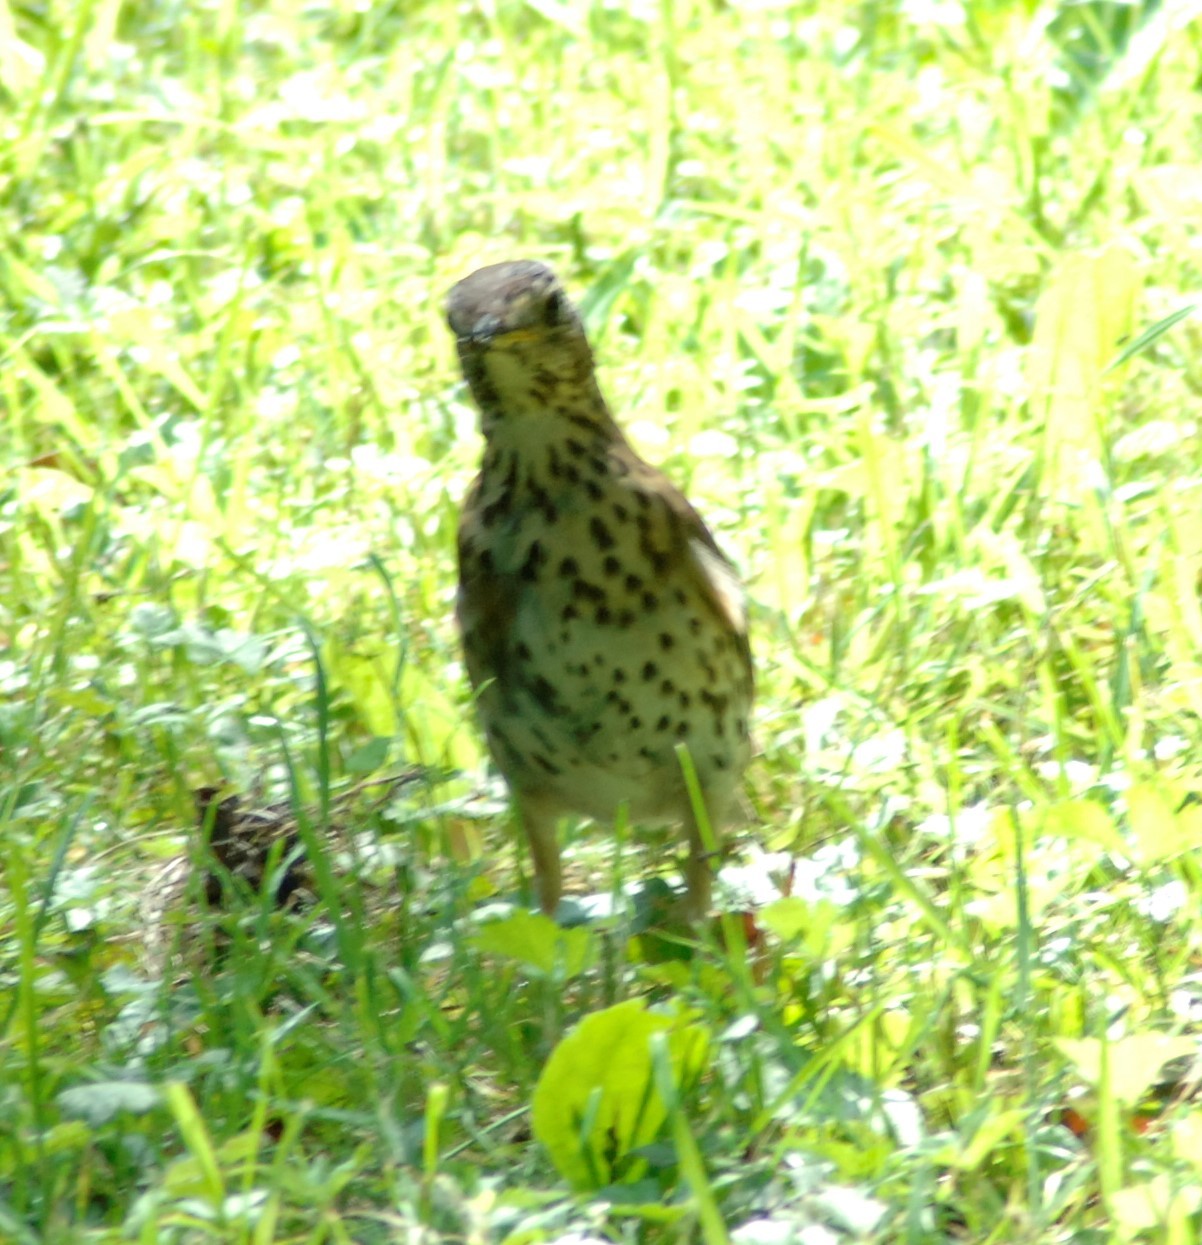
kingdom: Animalia
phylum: Chordata
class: Aves
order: Passeriformes
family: Turdidae
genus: Turdus
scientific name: Turdus philomelos
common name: Song thrush
